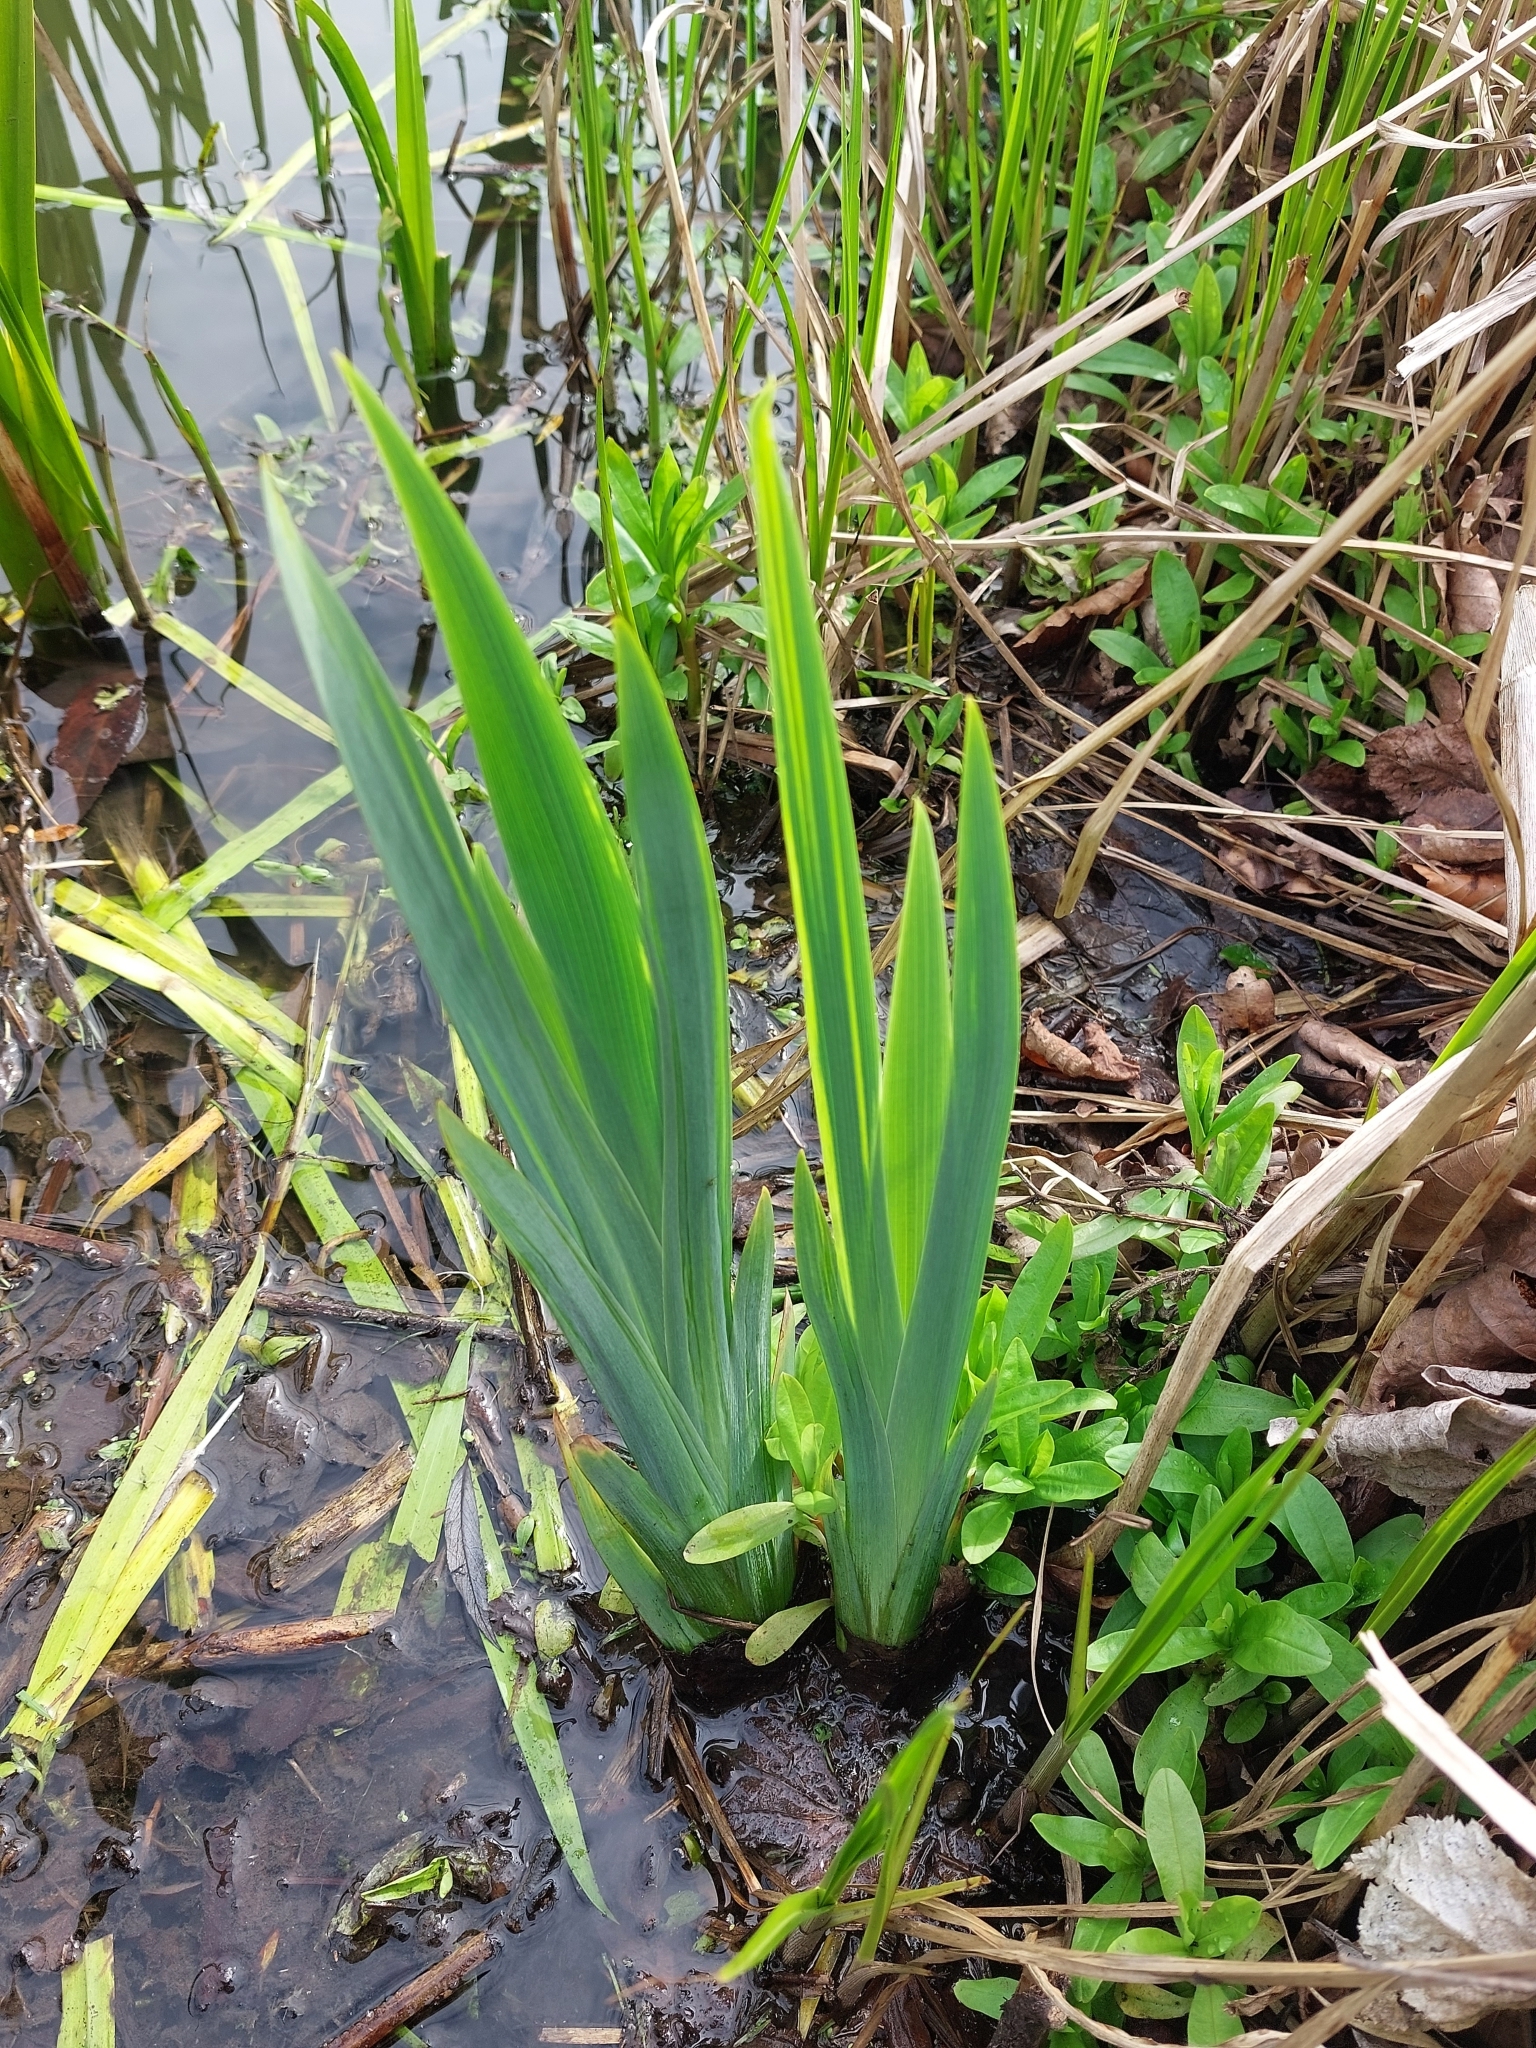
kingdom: Plantae
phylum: Tracheophyta
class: Liliopsida
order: Asparagales
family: Iridaceae
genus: Iris
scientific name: Iris pseudacorus
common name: Yellow flag
